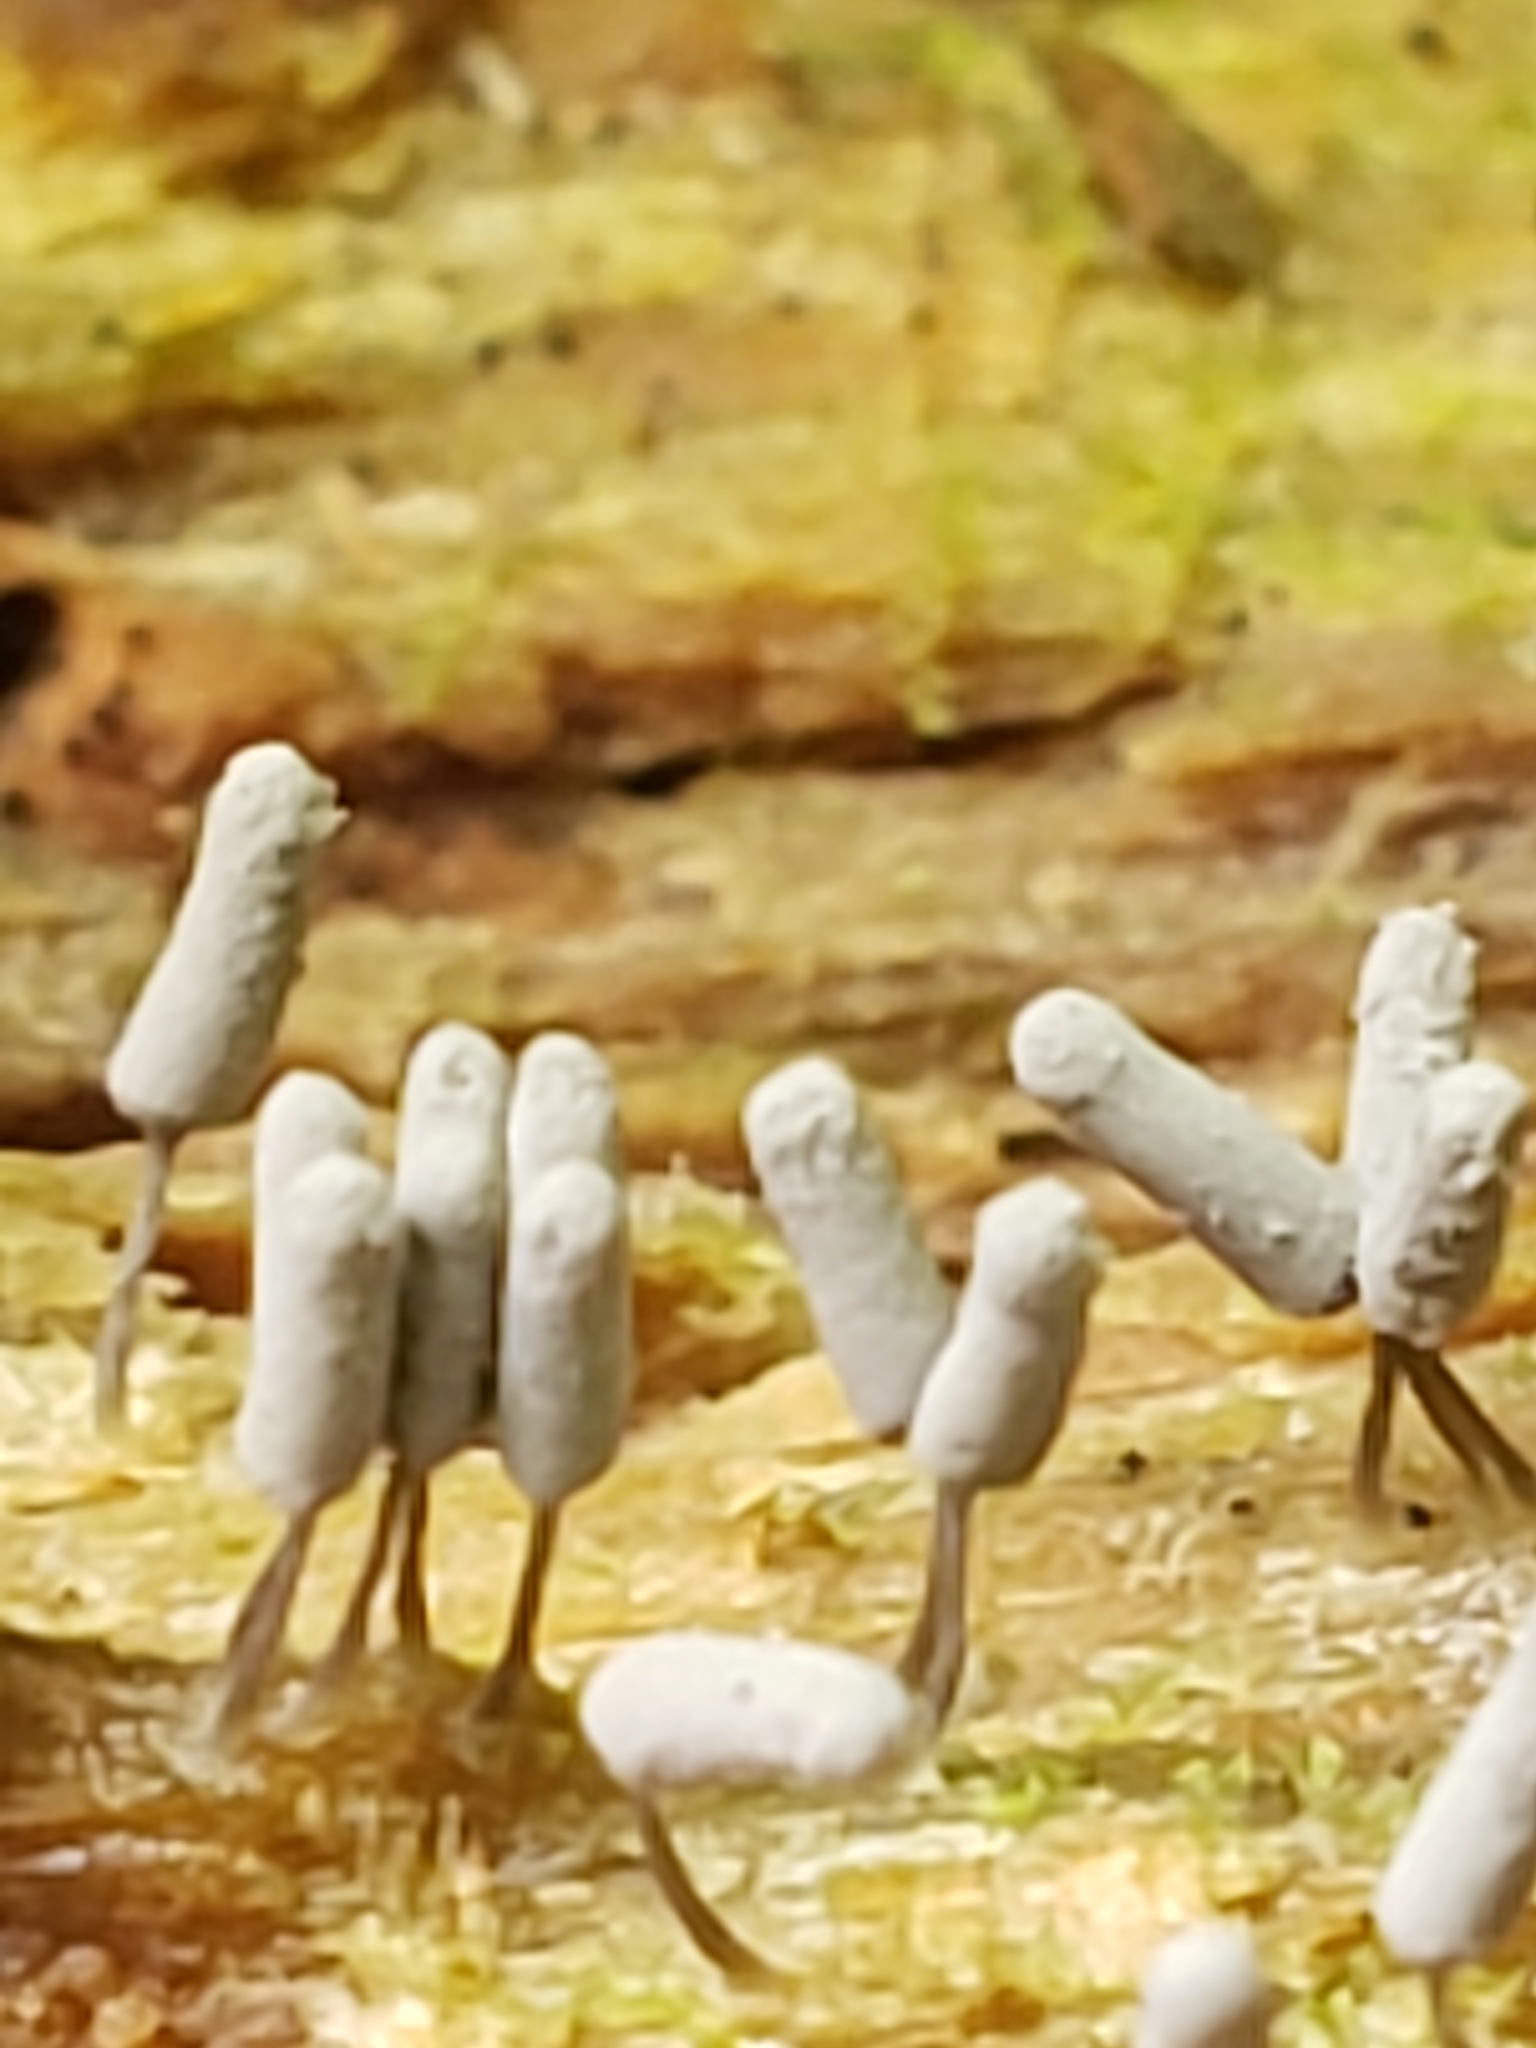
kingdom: Protozoa
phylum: Mycetozoa
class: Myxomycetes
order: Trichiales
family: Arcyriaceae
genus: Arcyria
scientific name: Arcyria cinerea
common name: White carnival candy slime mold
